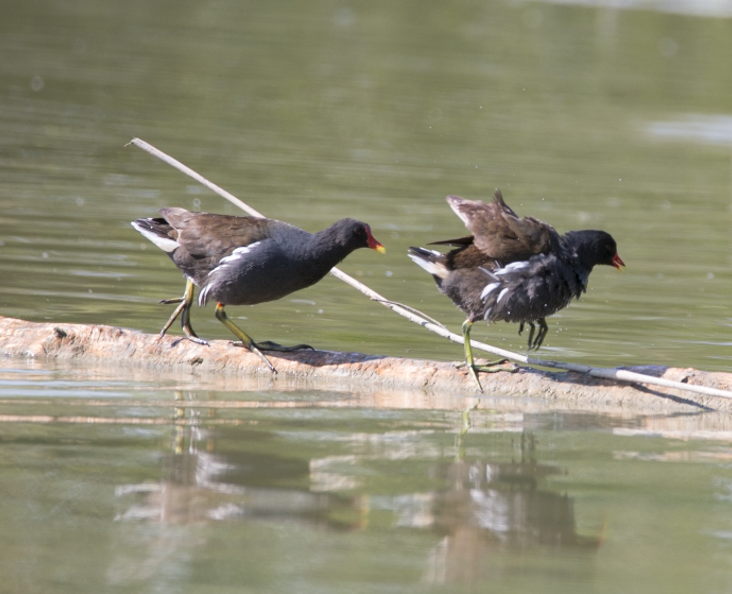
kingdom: Animalia
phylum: Chordata
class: Aves
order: Gruiformes
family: Rallidae
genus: Gallinula
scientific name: Gallinula chloropus
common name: Common moorhen
